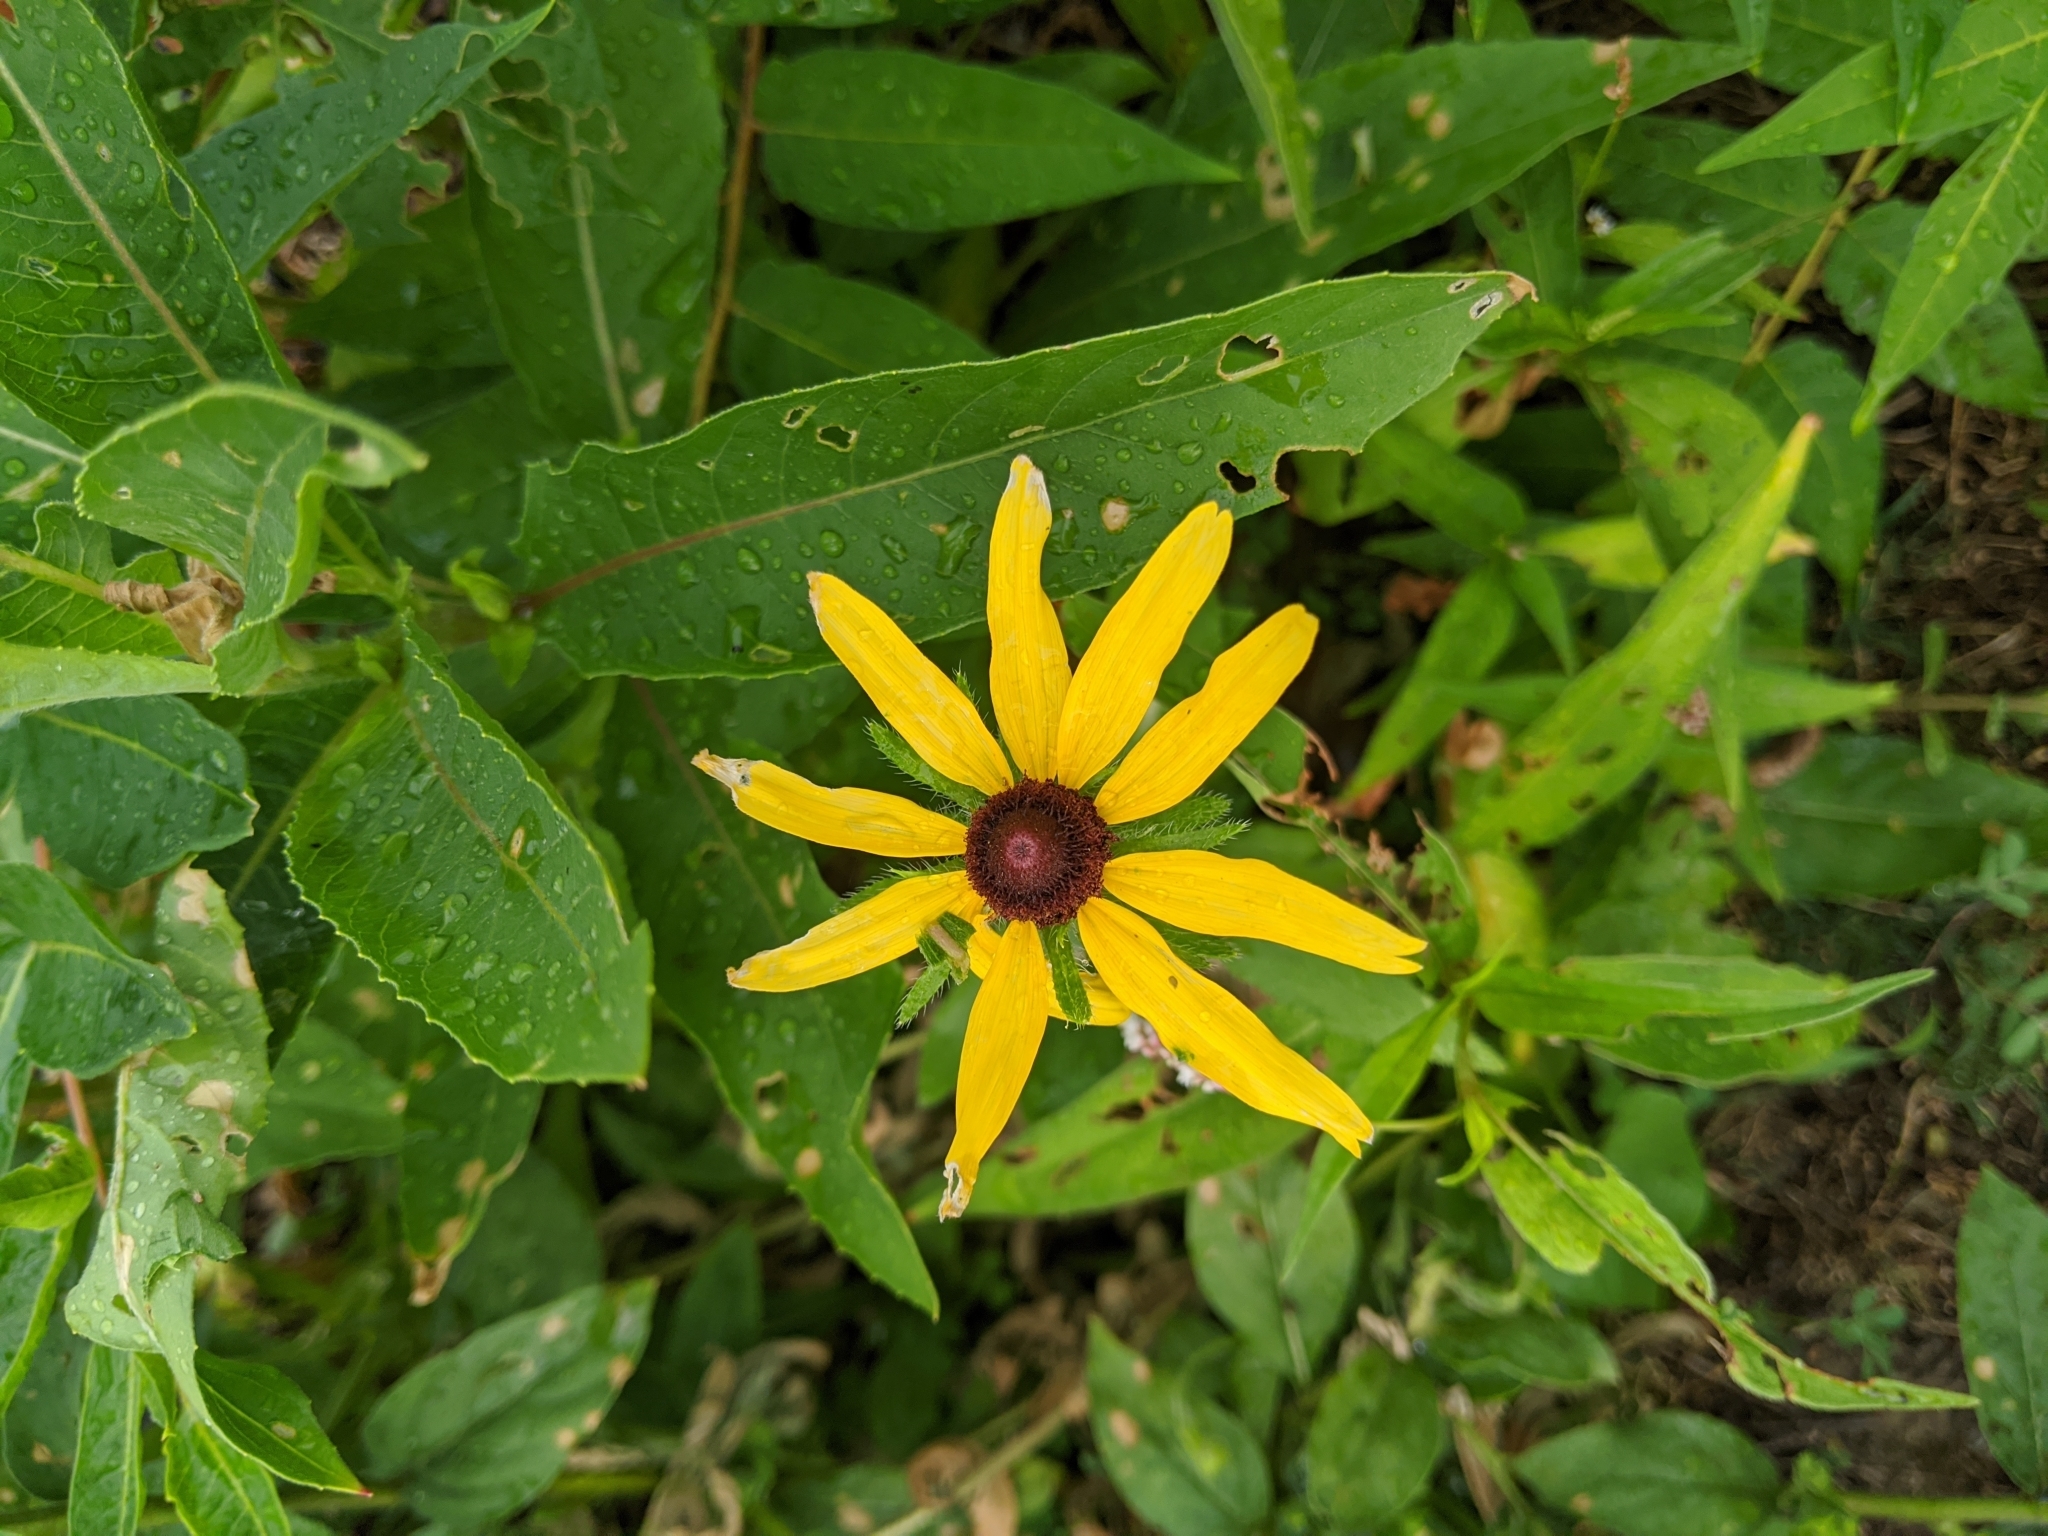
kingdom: Plantae
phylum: Tracheophyta
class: Magnoliopsida
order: Asterales
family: Asteraceae
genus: Rudbeckia
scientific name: Rudbeckia hirta
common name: Black-eyed-susan
